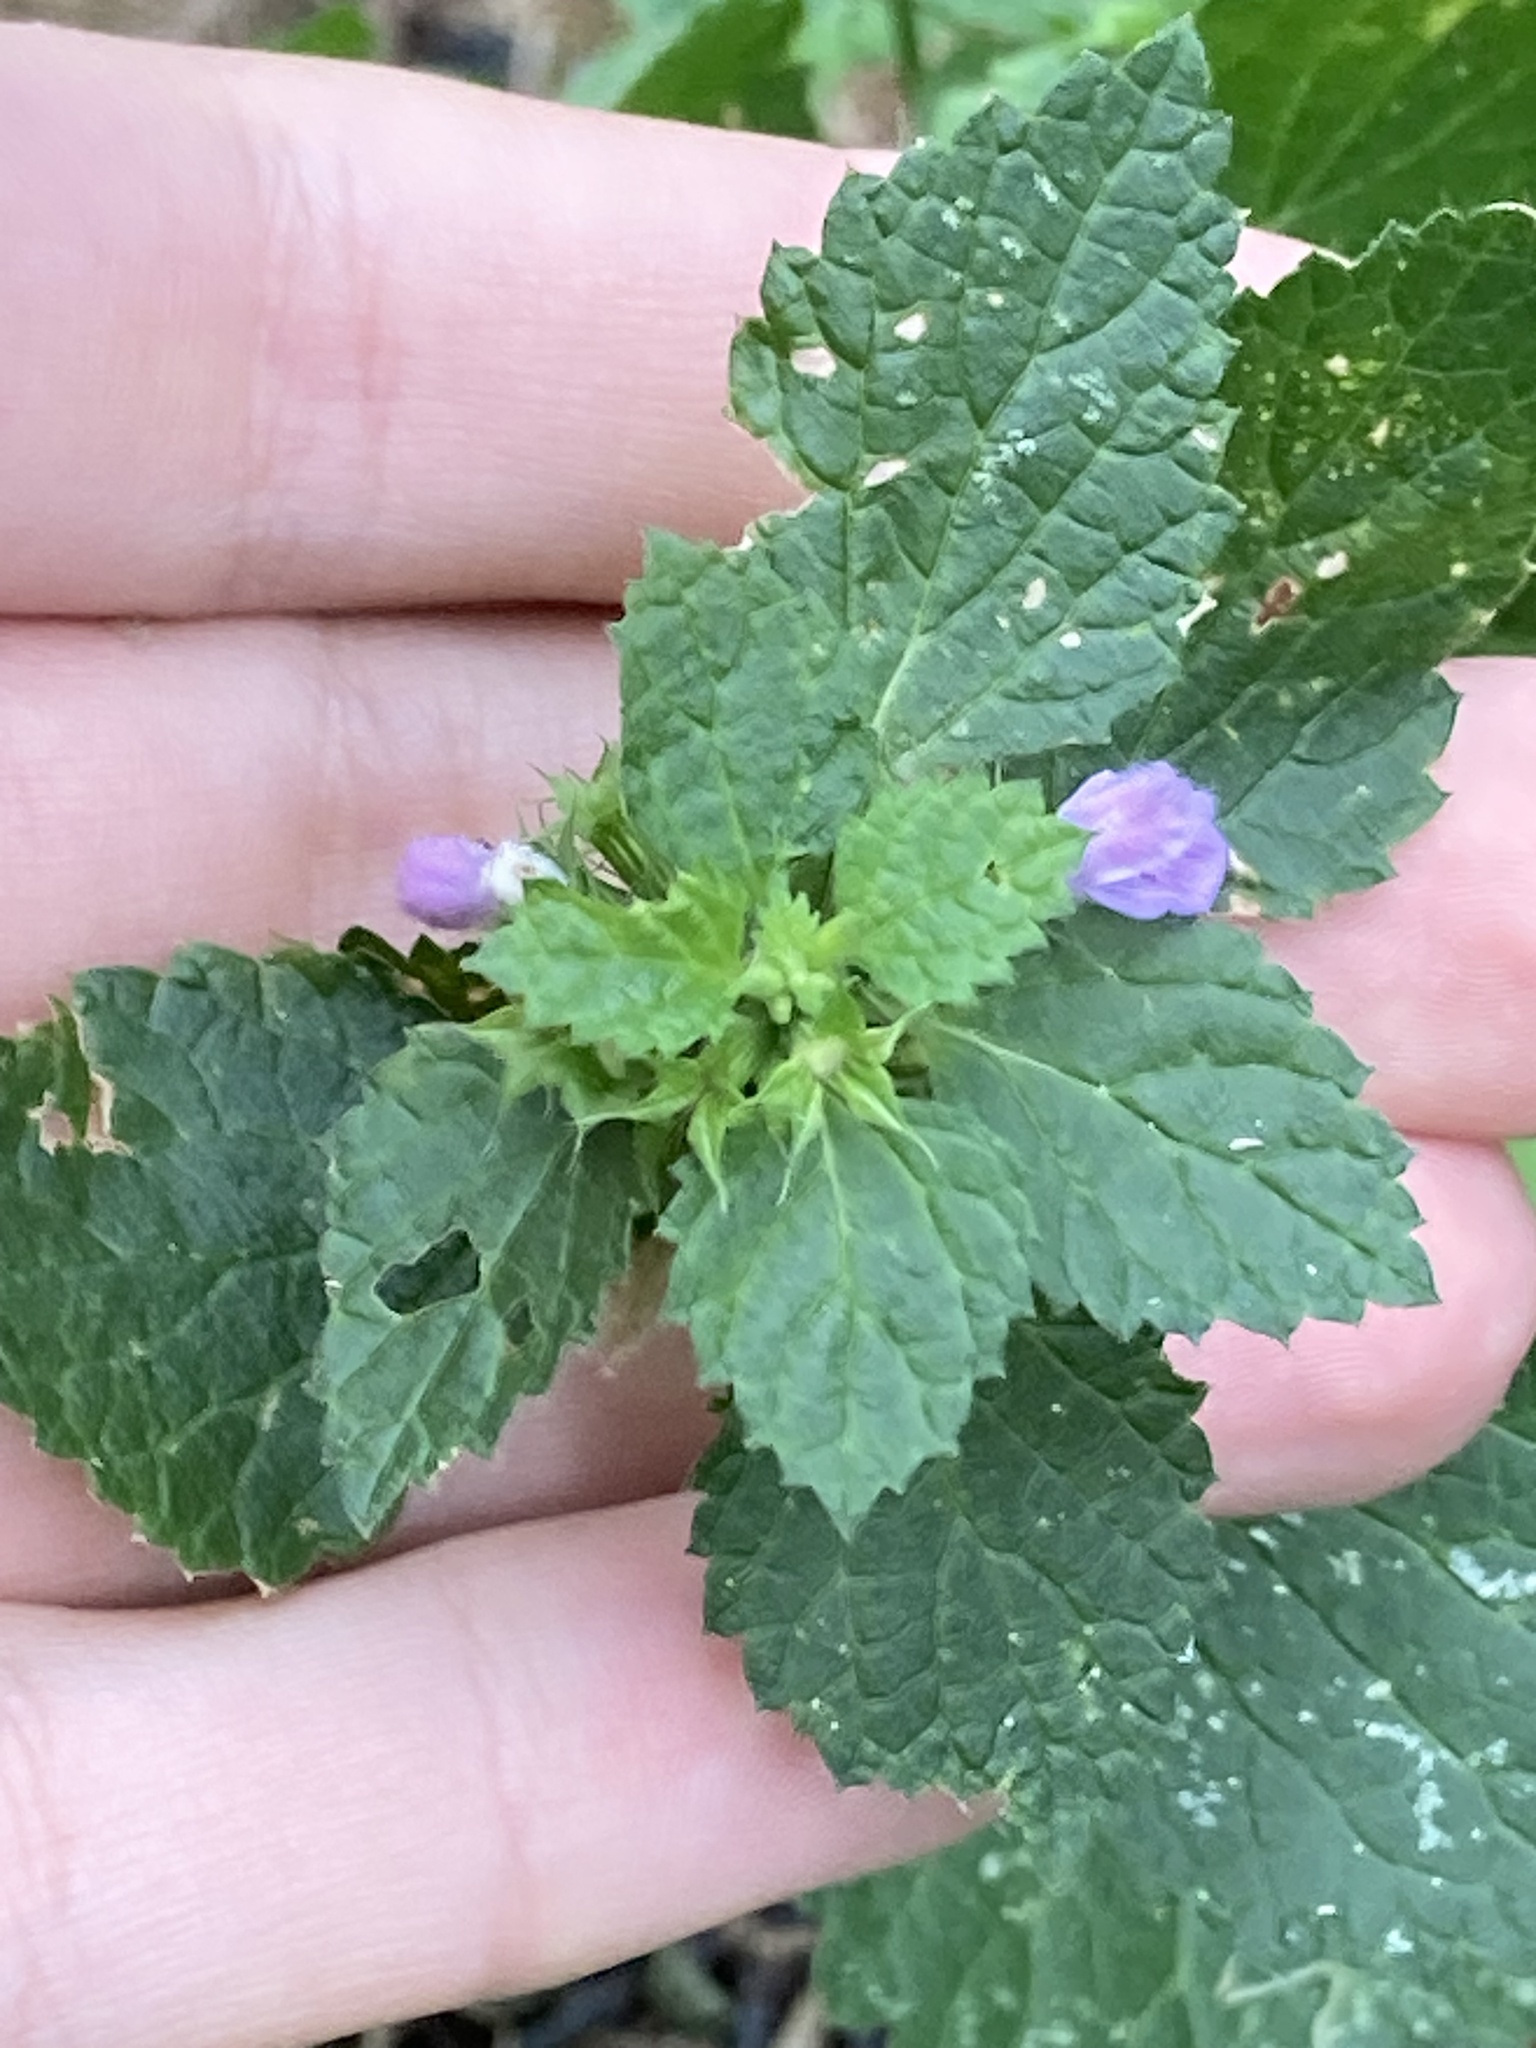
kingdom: Plantae
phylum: Tracheophyta
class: Magnoliopsida
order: Lamiales
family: Lamiaceae
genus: Ballota
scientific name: Ballota nigra
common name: Black horehound
